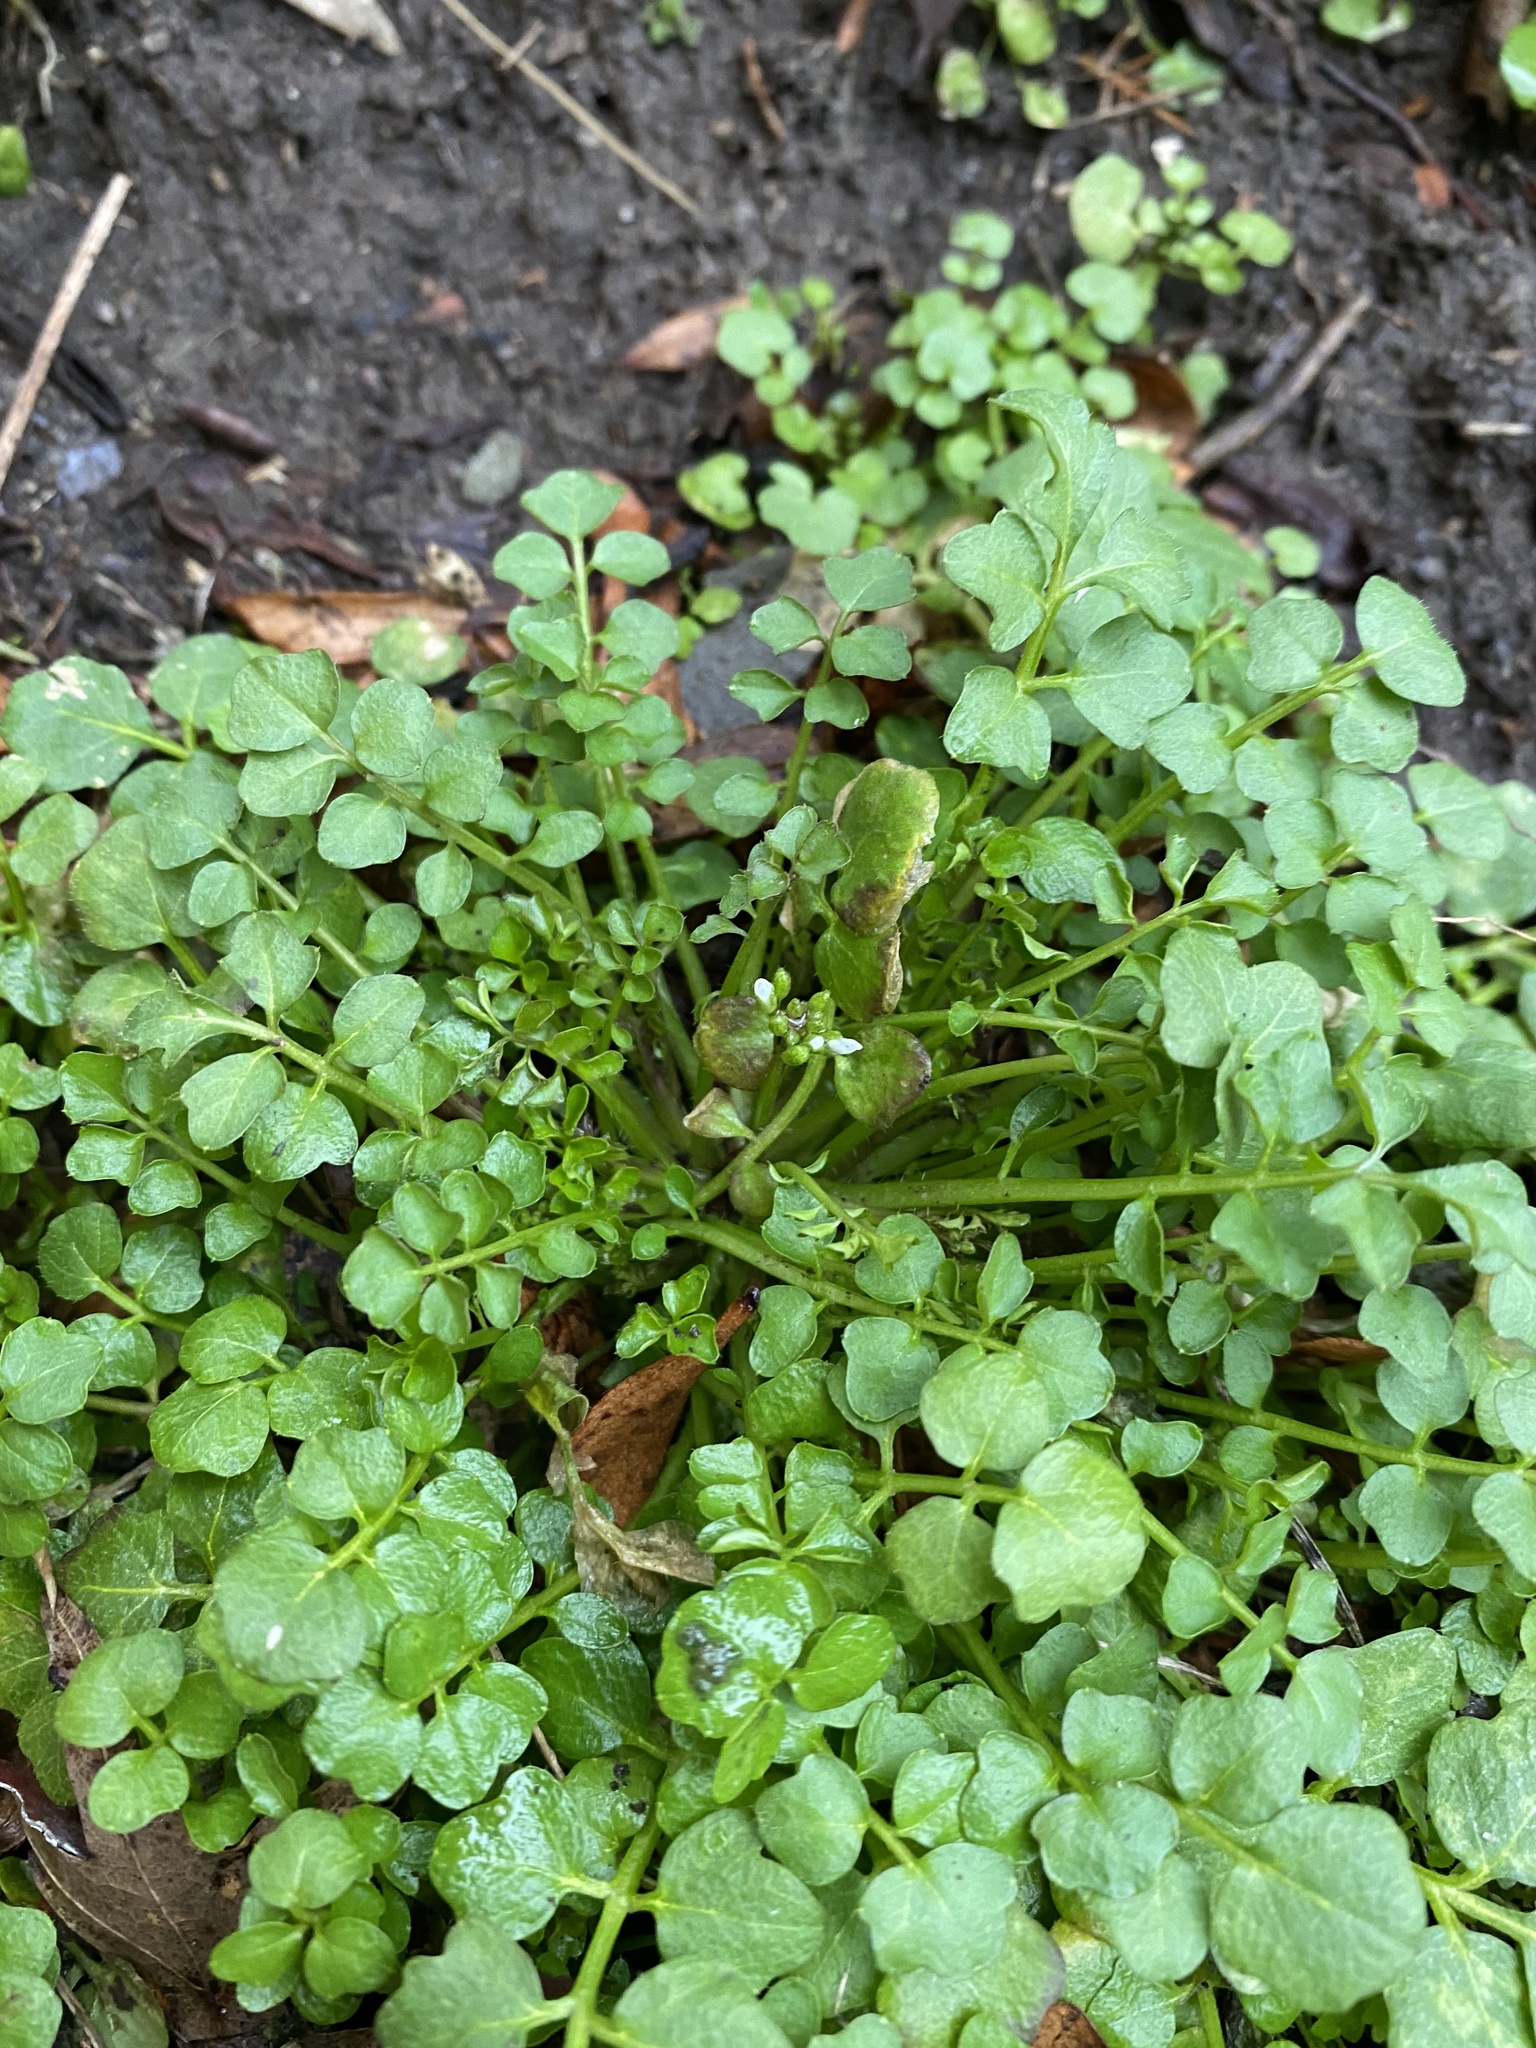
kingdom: Plantae
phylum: Tracheophyta
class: Magnoliopsida
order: Brassicales
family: Brassicaceae
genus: Cardamine
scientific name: Cardamine hirsuta
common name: Hairy bittercress
